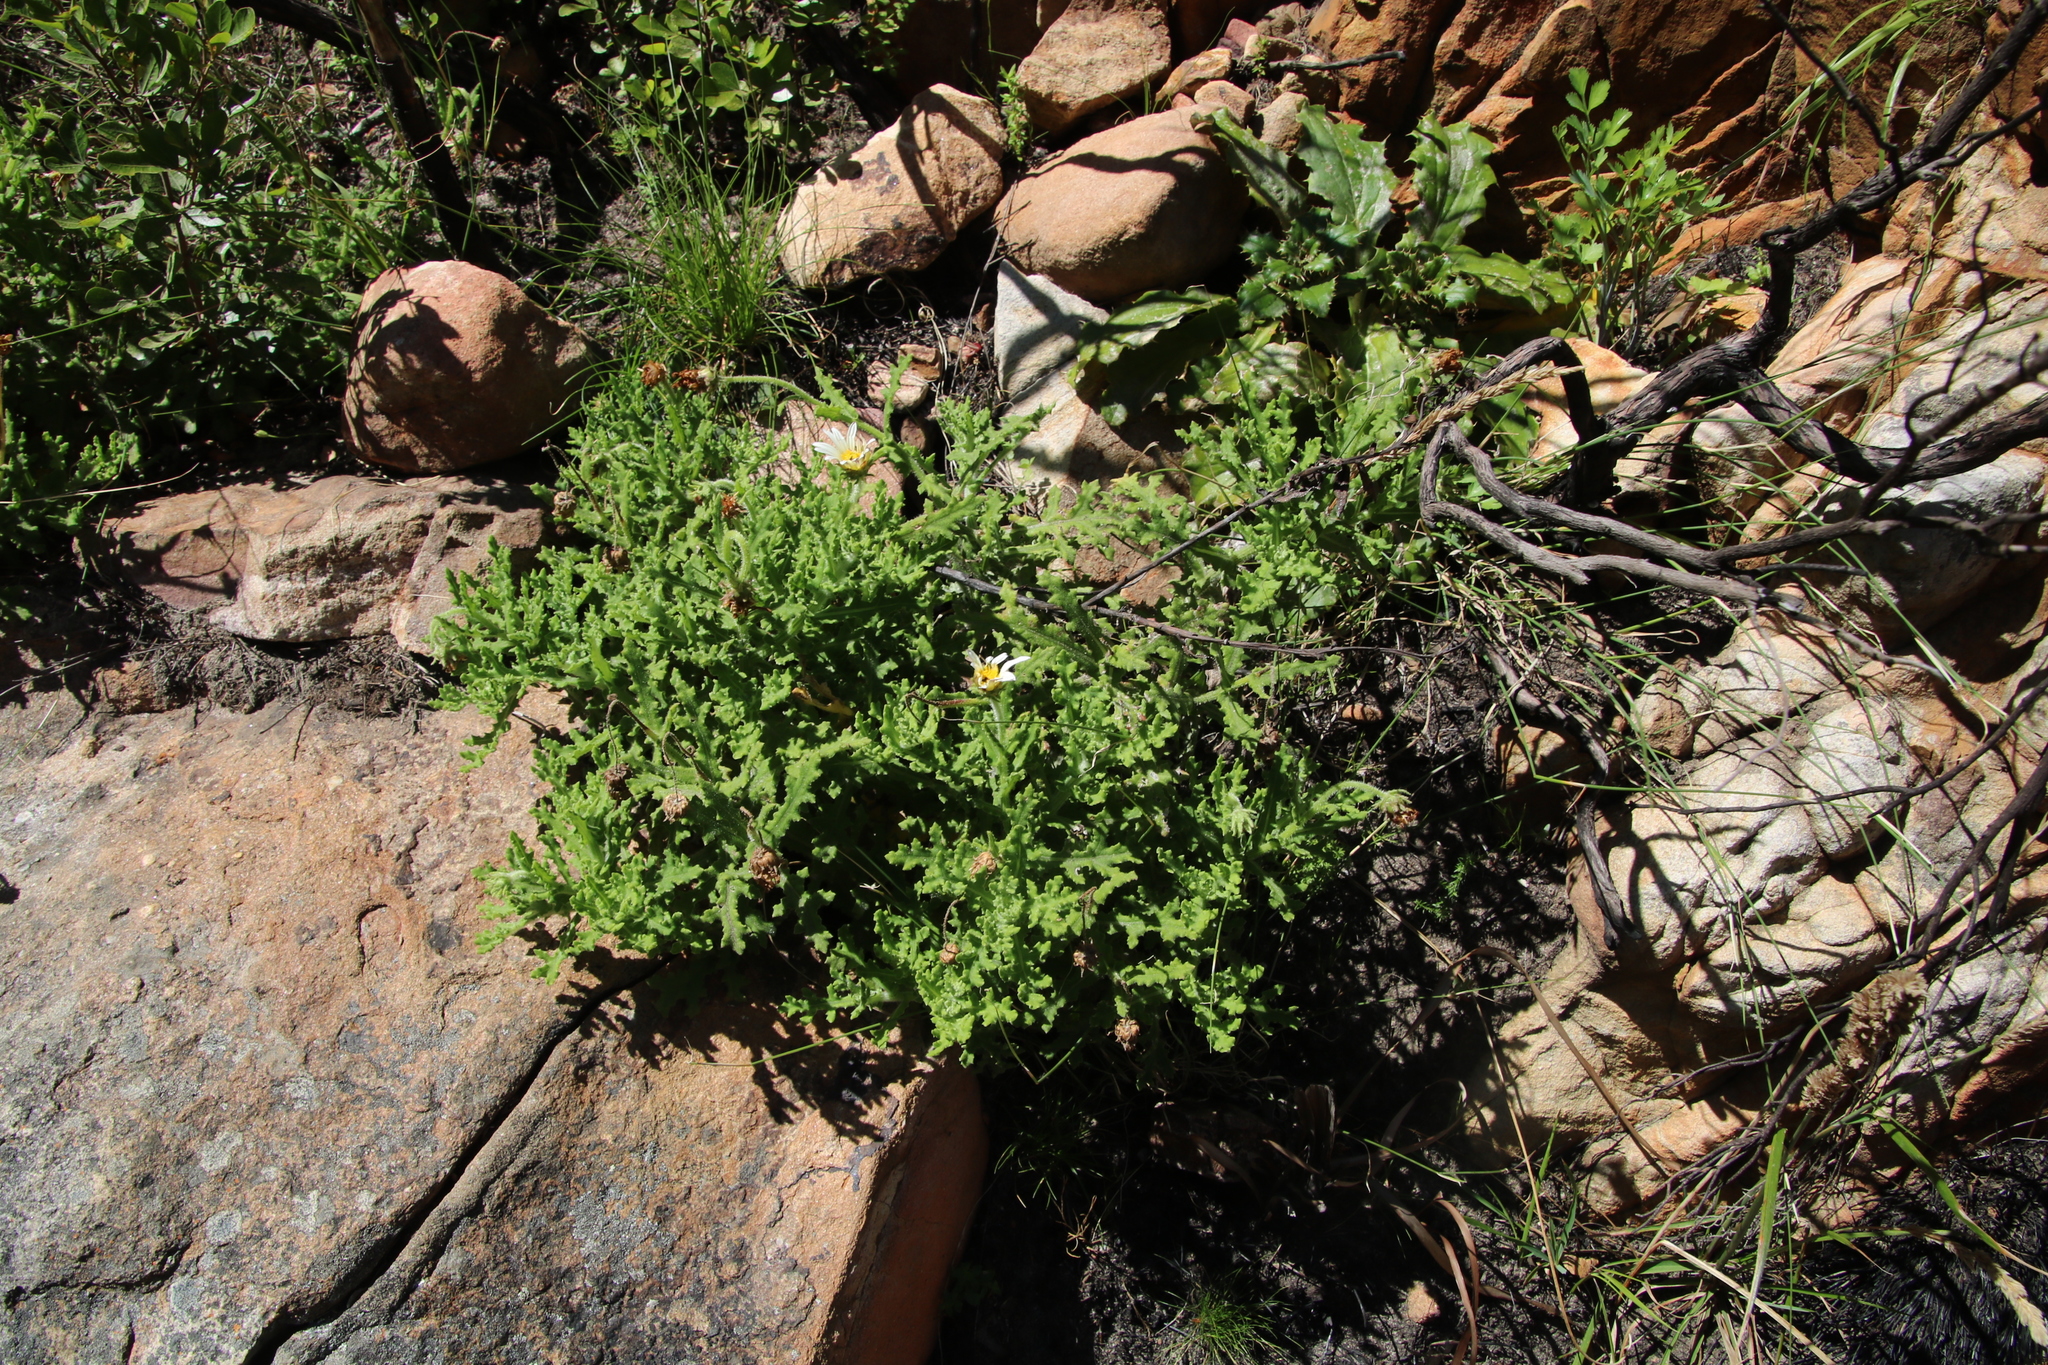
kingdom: Plantae
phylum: Tracheophyta
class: Magnoliopsida
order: Asterales
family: Asteraceae
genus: Arctotis
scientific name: Arctotis aspera
